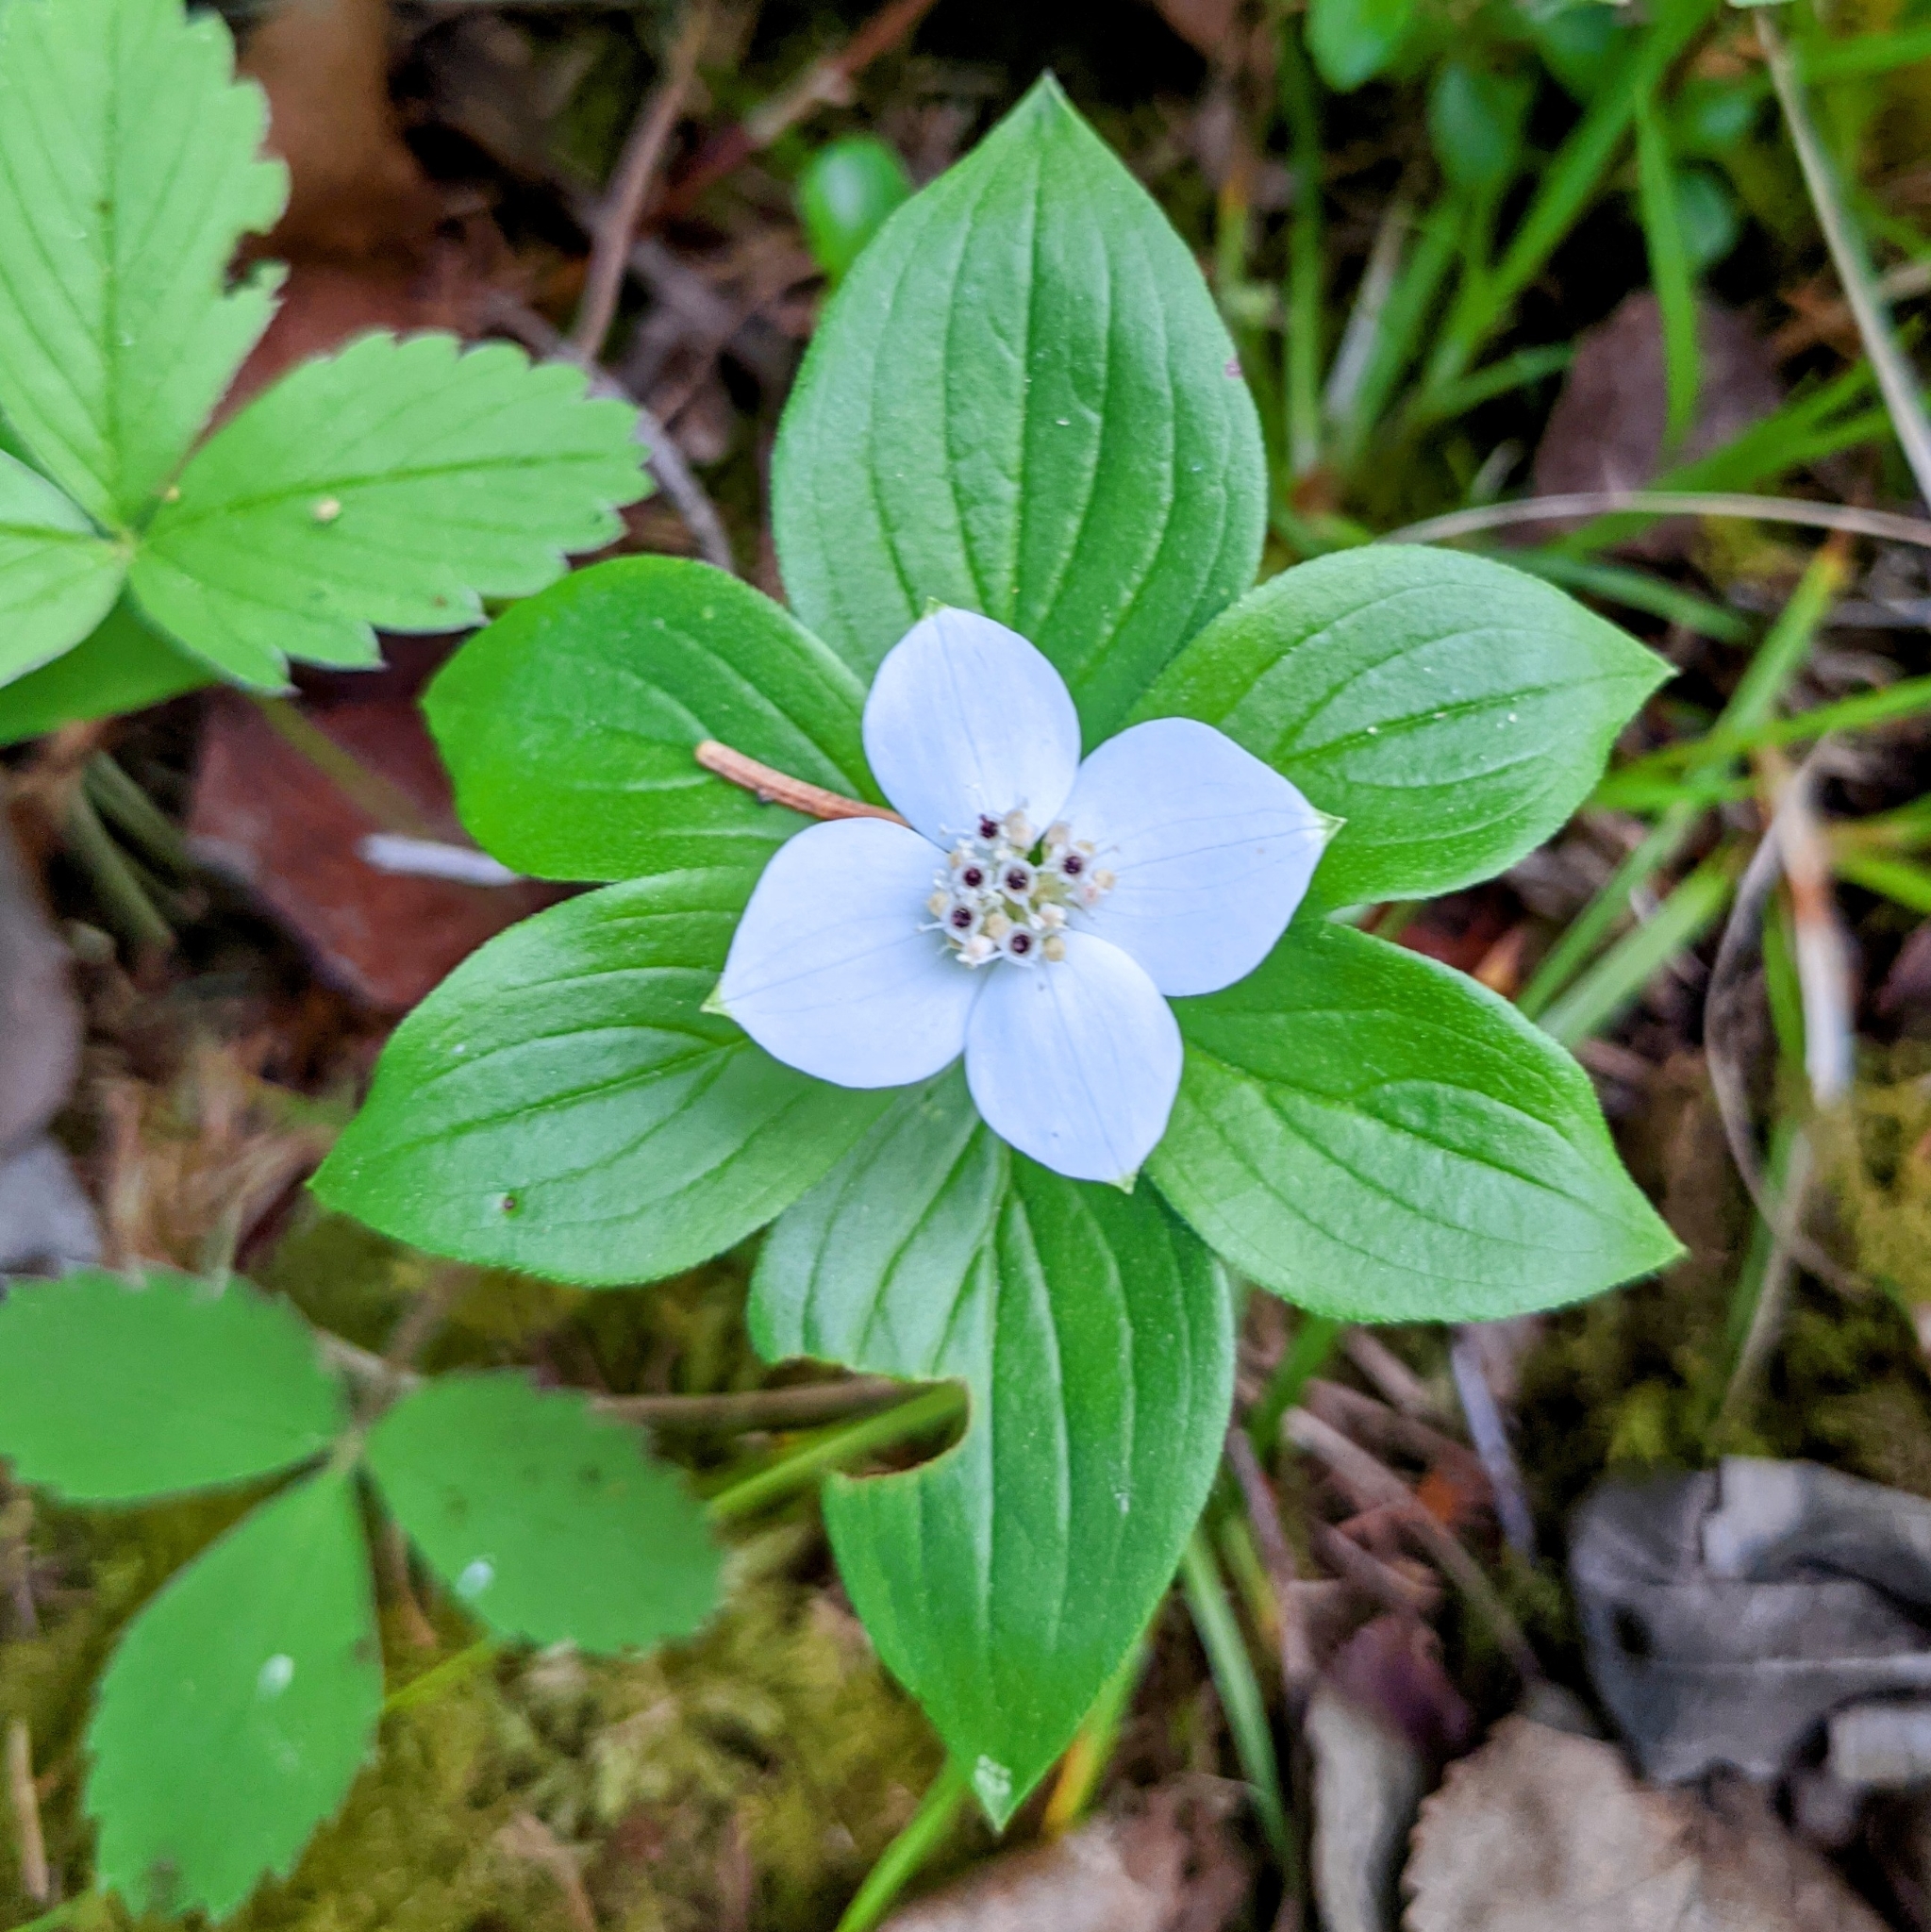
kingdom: Plantae
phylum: Tracheophyta
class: Magnoliopsida
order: Cornales
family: Cornaceae
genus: Cornus
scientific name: Cornus canadensis
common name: Creeping dogwood
